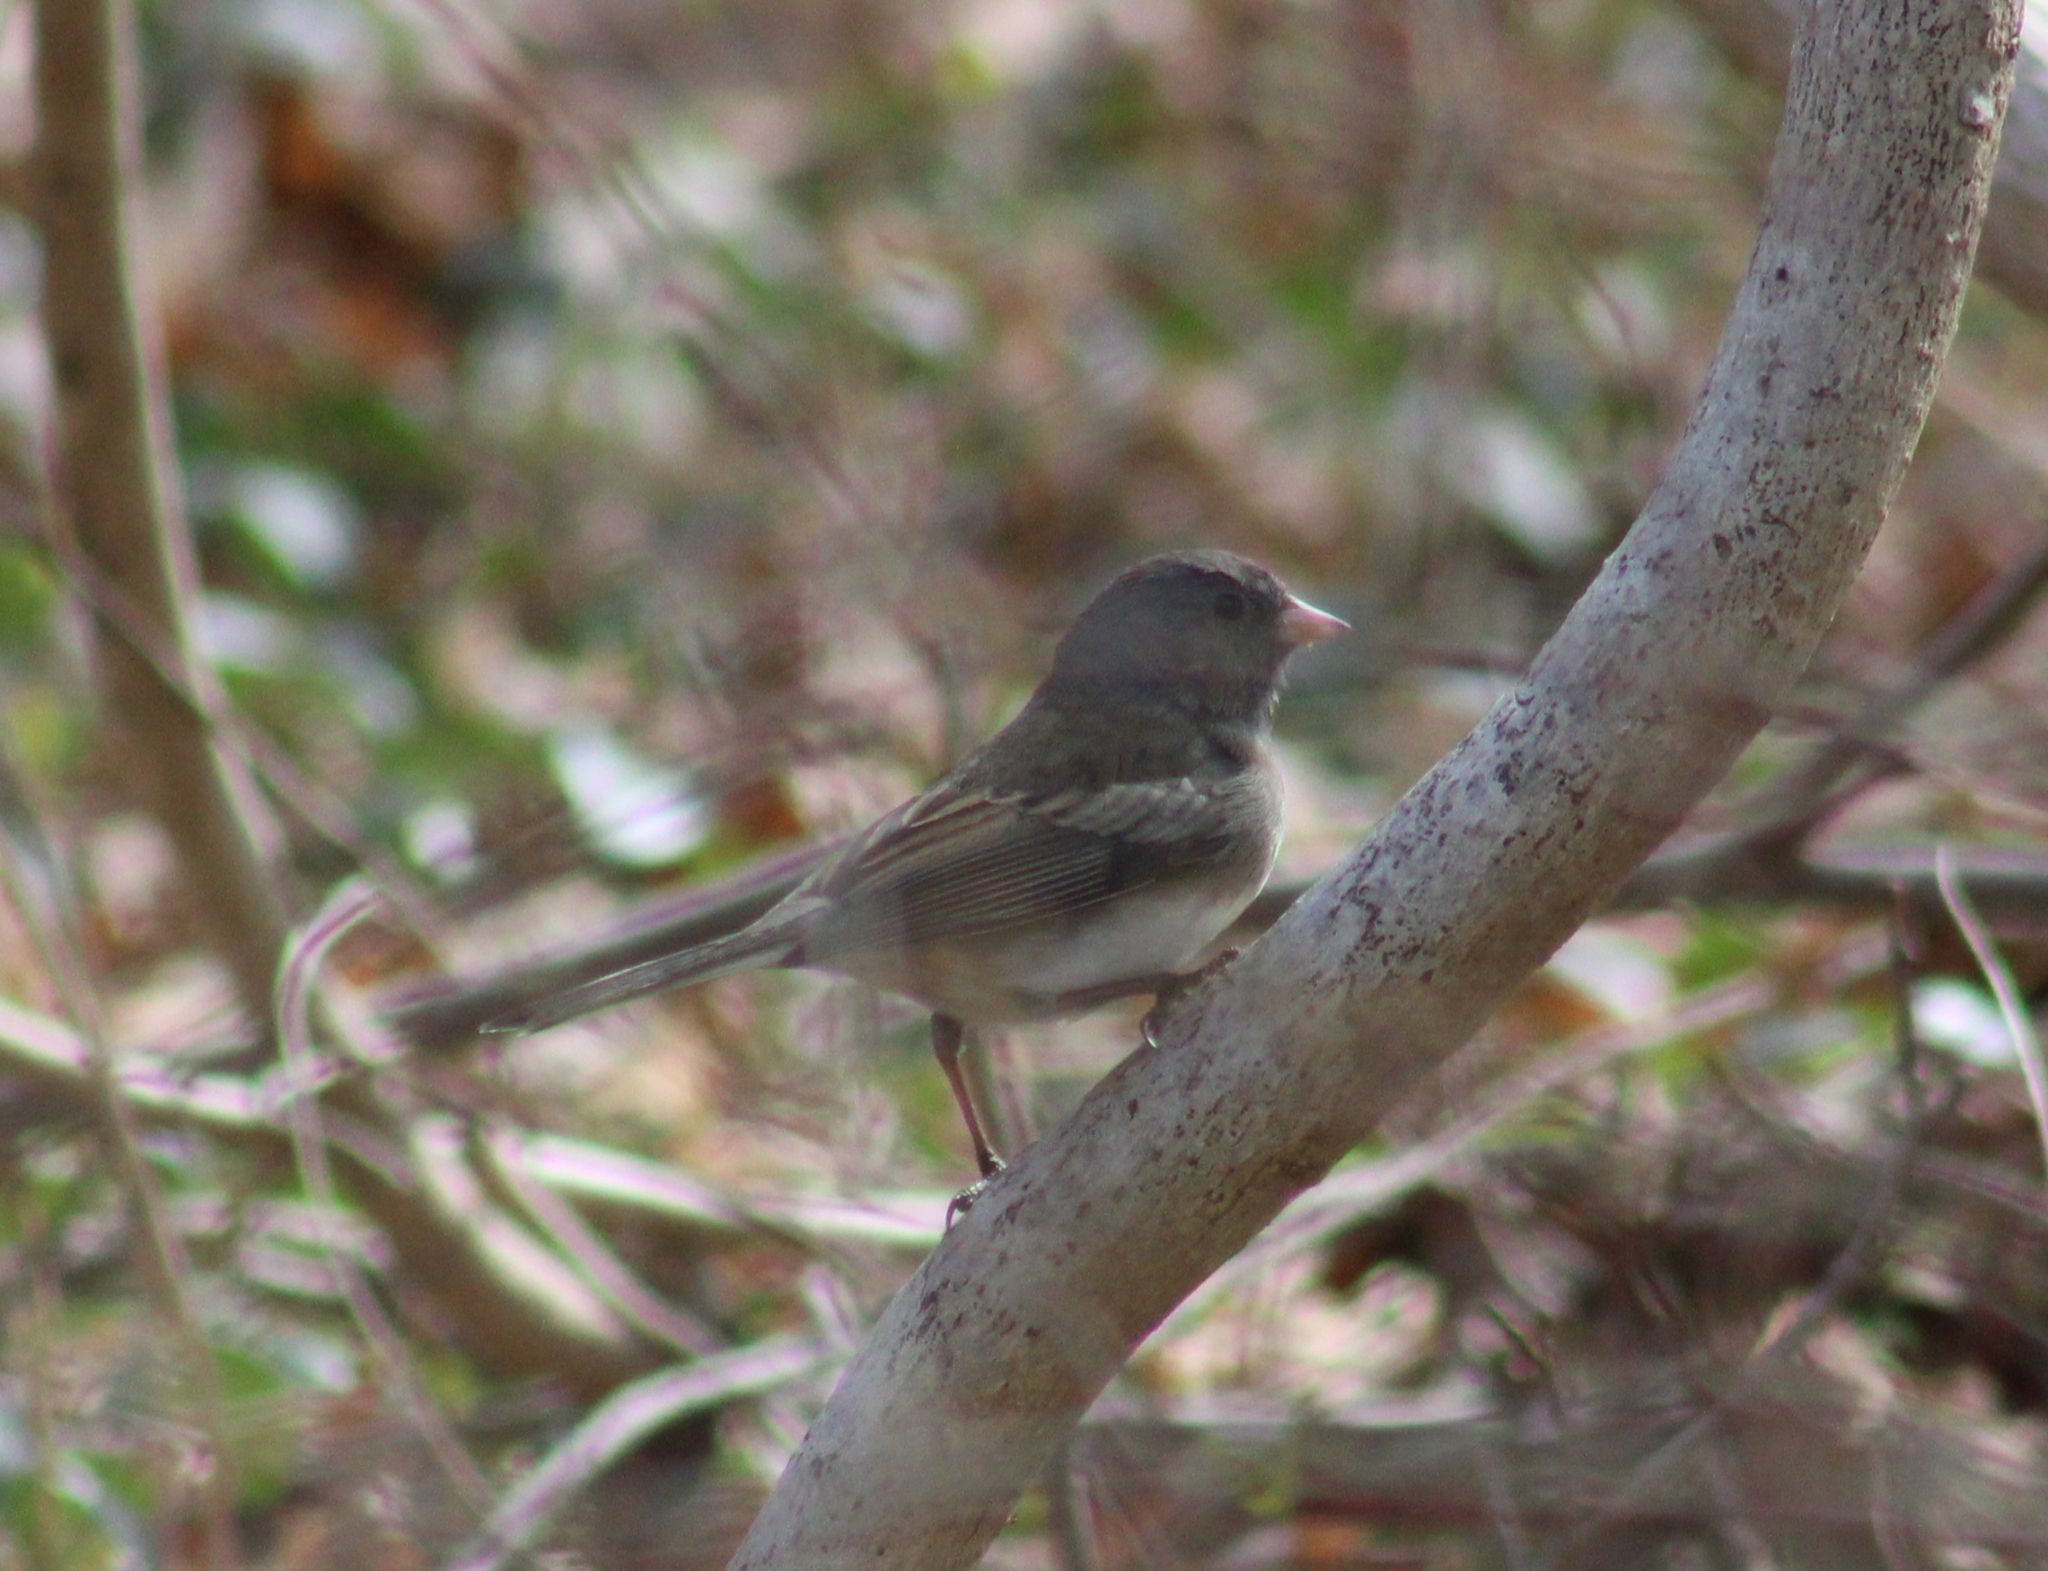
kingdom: Animalia
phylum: Chordata
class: Aves
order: Passeriformes
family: Passerellidae
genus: Junco
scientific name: Junco hyemalis
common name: Dark-eyed junco
